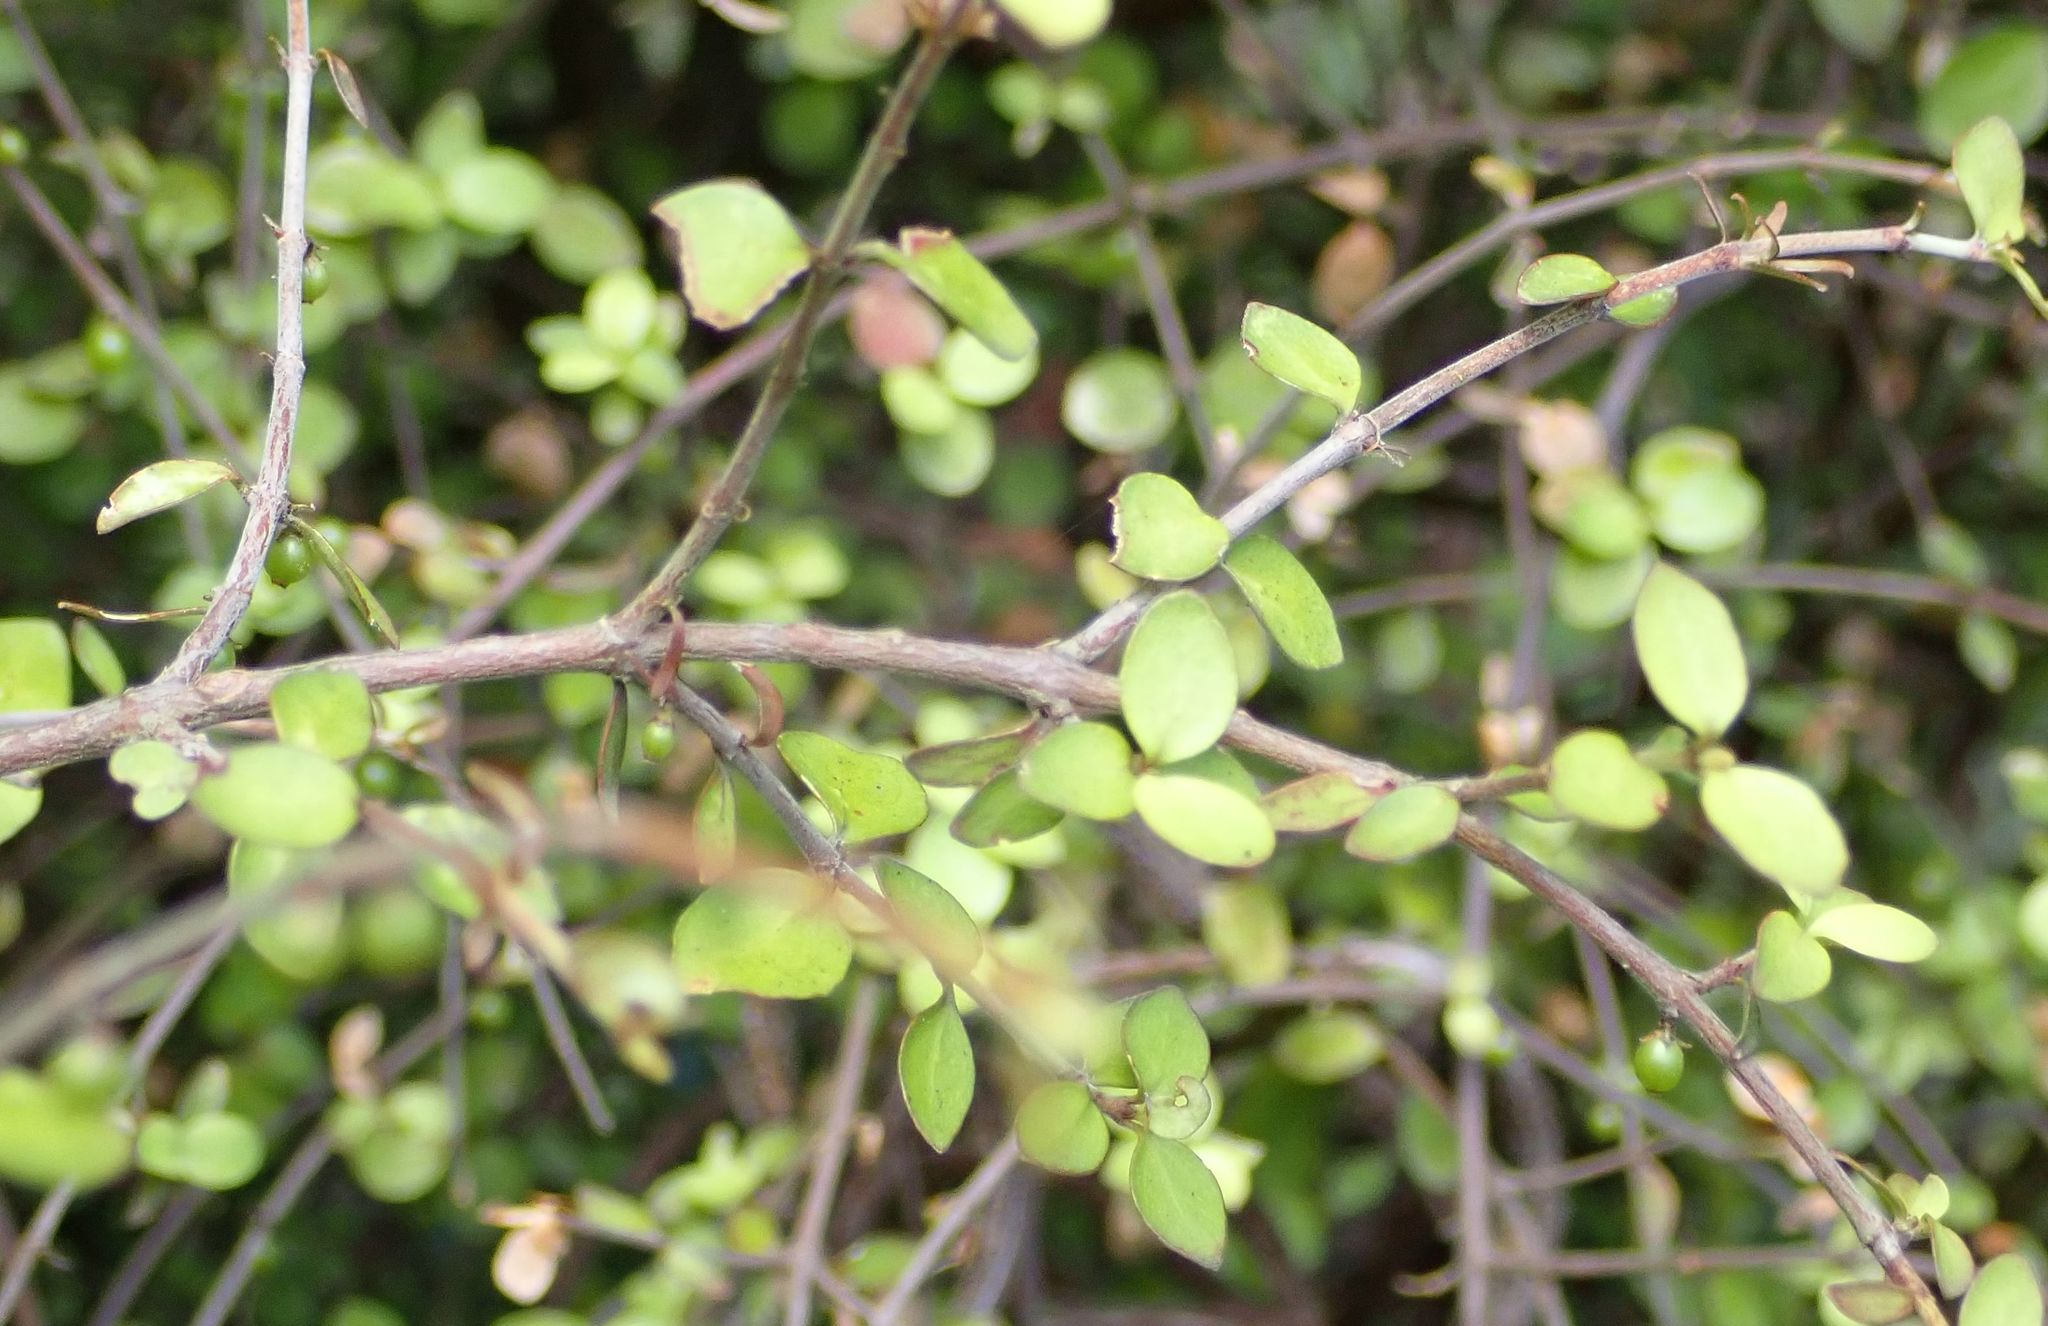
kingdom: Plantae
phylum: Tracheophyta
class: Magnoliopsida
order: Gentianales
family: Rubiaceae
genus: Coprosma
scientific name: Coprosma rhamnoides
